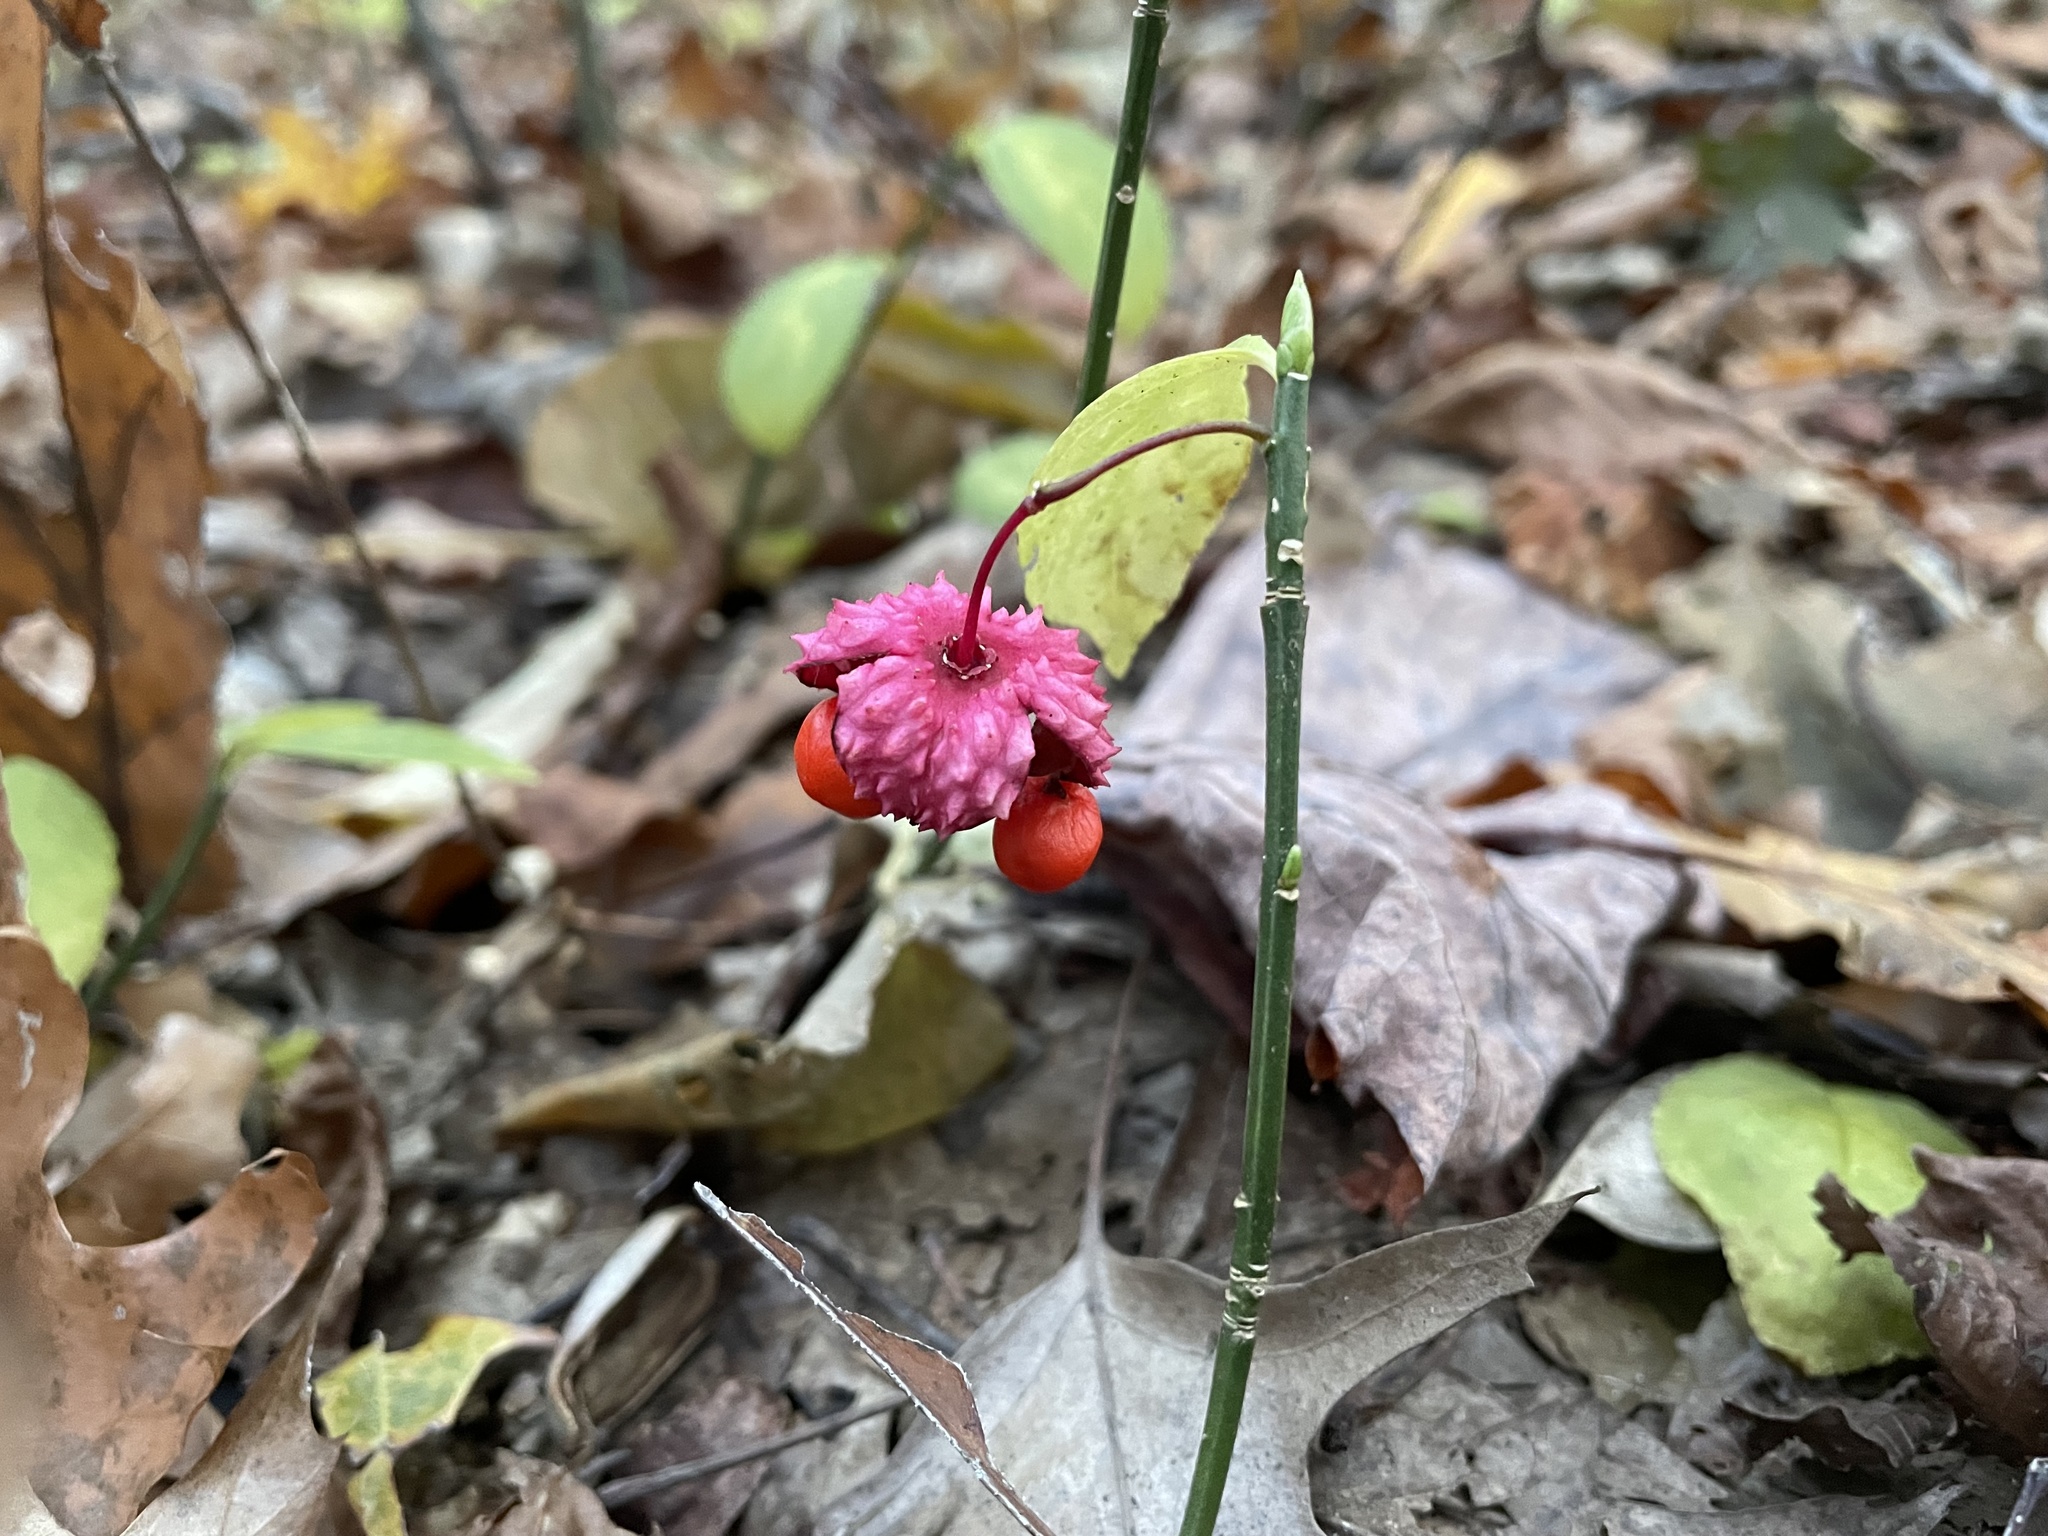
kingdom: Plantae
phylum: Tracheophyta
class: Magnoliopsida
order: Celastrales
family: Celastraceae
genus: Euonymus
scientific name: Euonymus obovatus
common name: Running strawberry-bush
